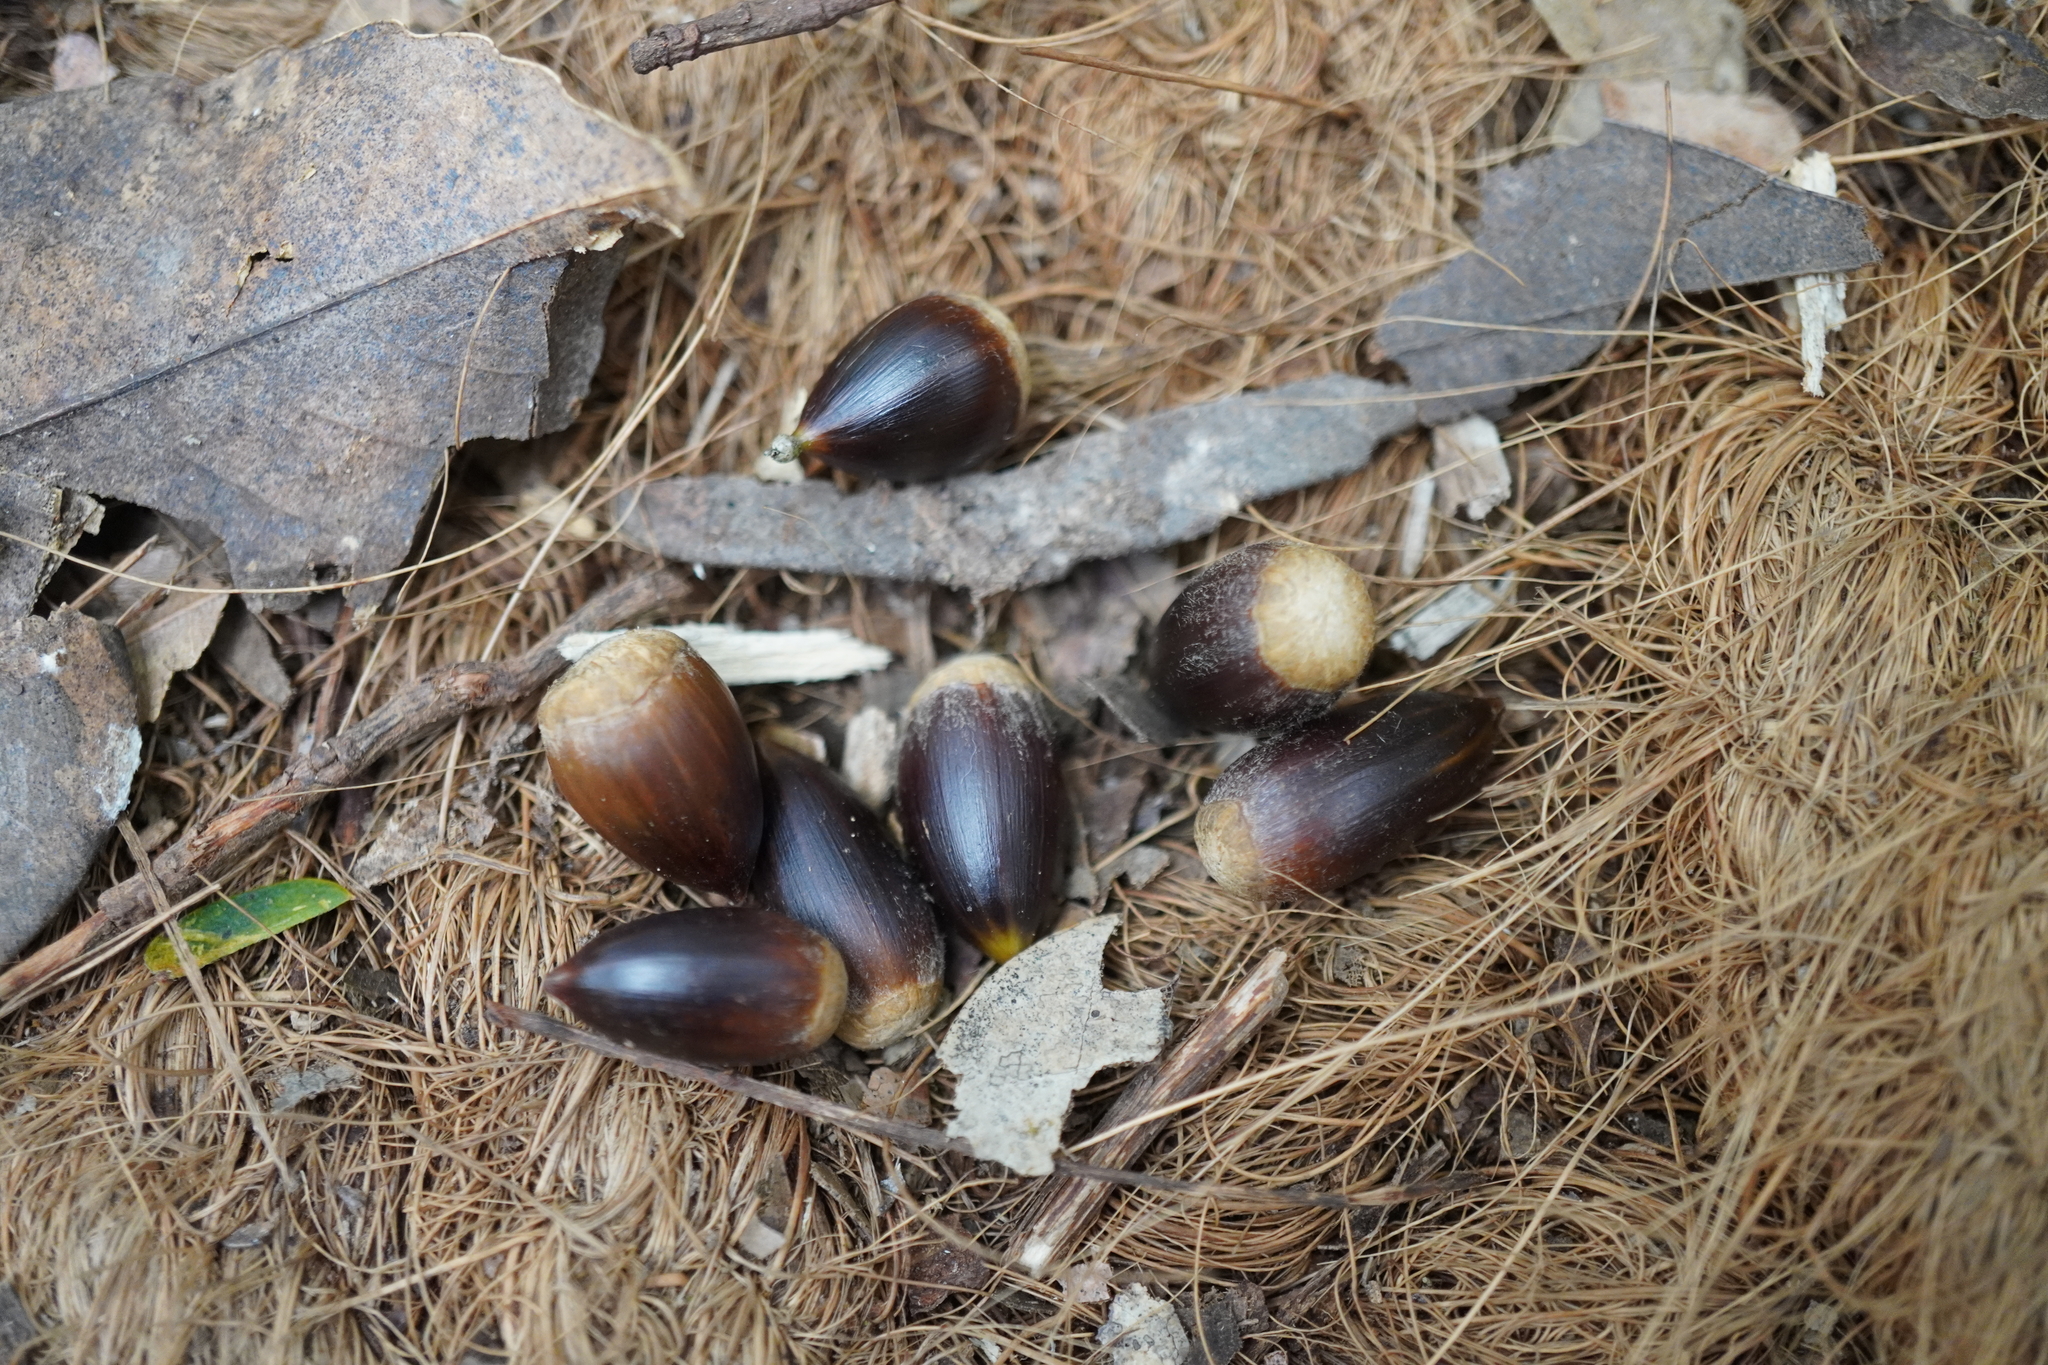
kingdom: Plantae
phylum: Tracheophyta
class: Magnoliopsida
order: Fagales
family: Fagaceae
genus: Castanopsis
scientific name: Castanopsis sieboldii
